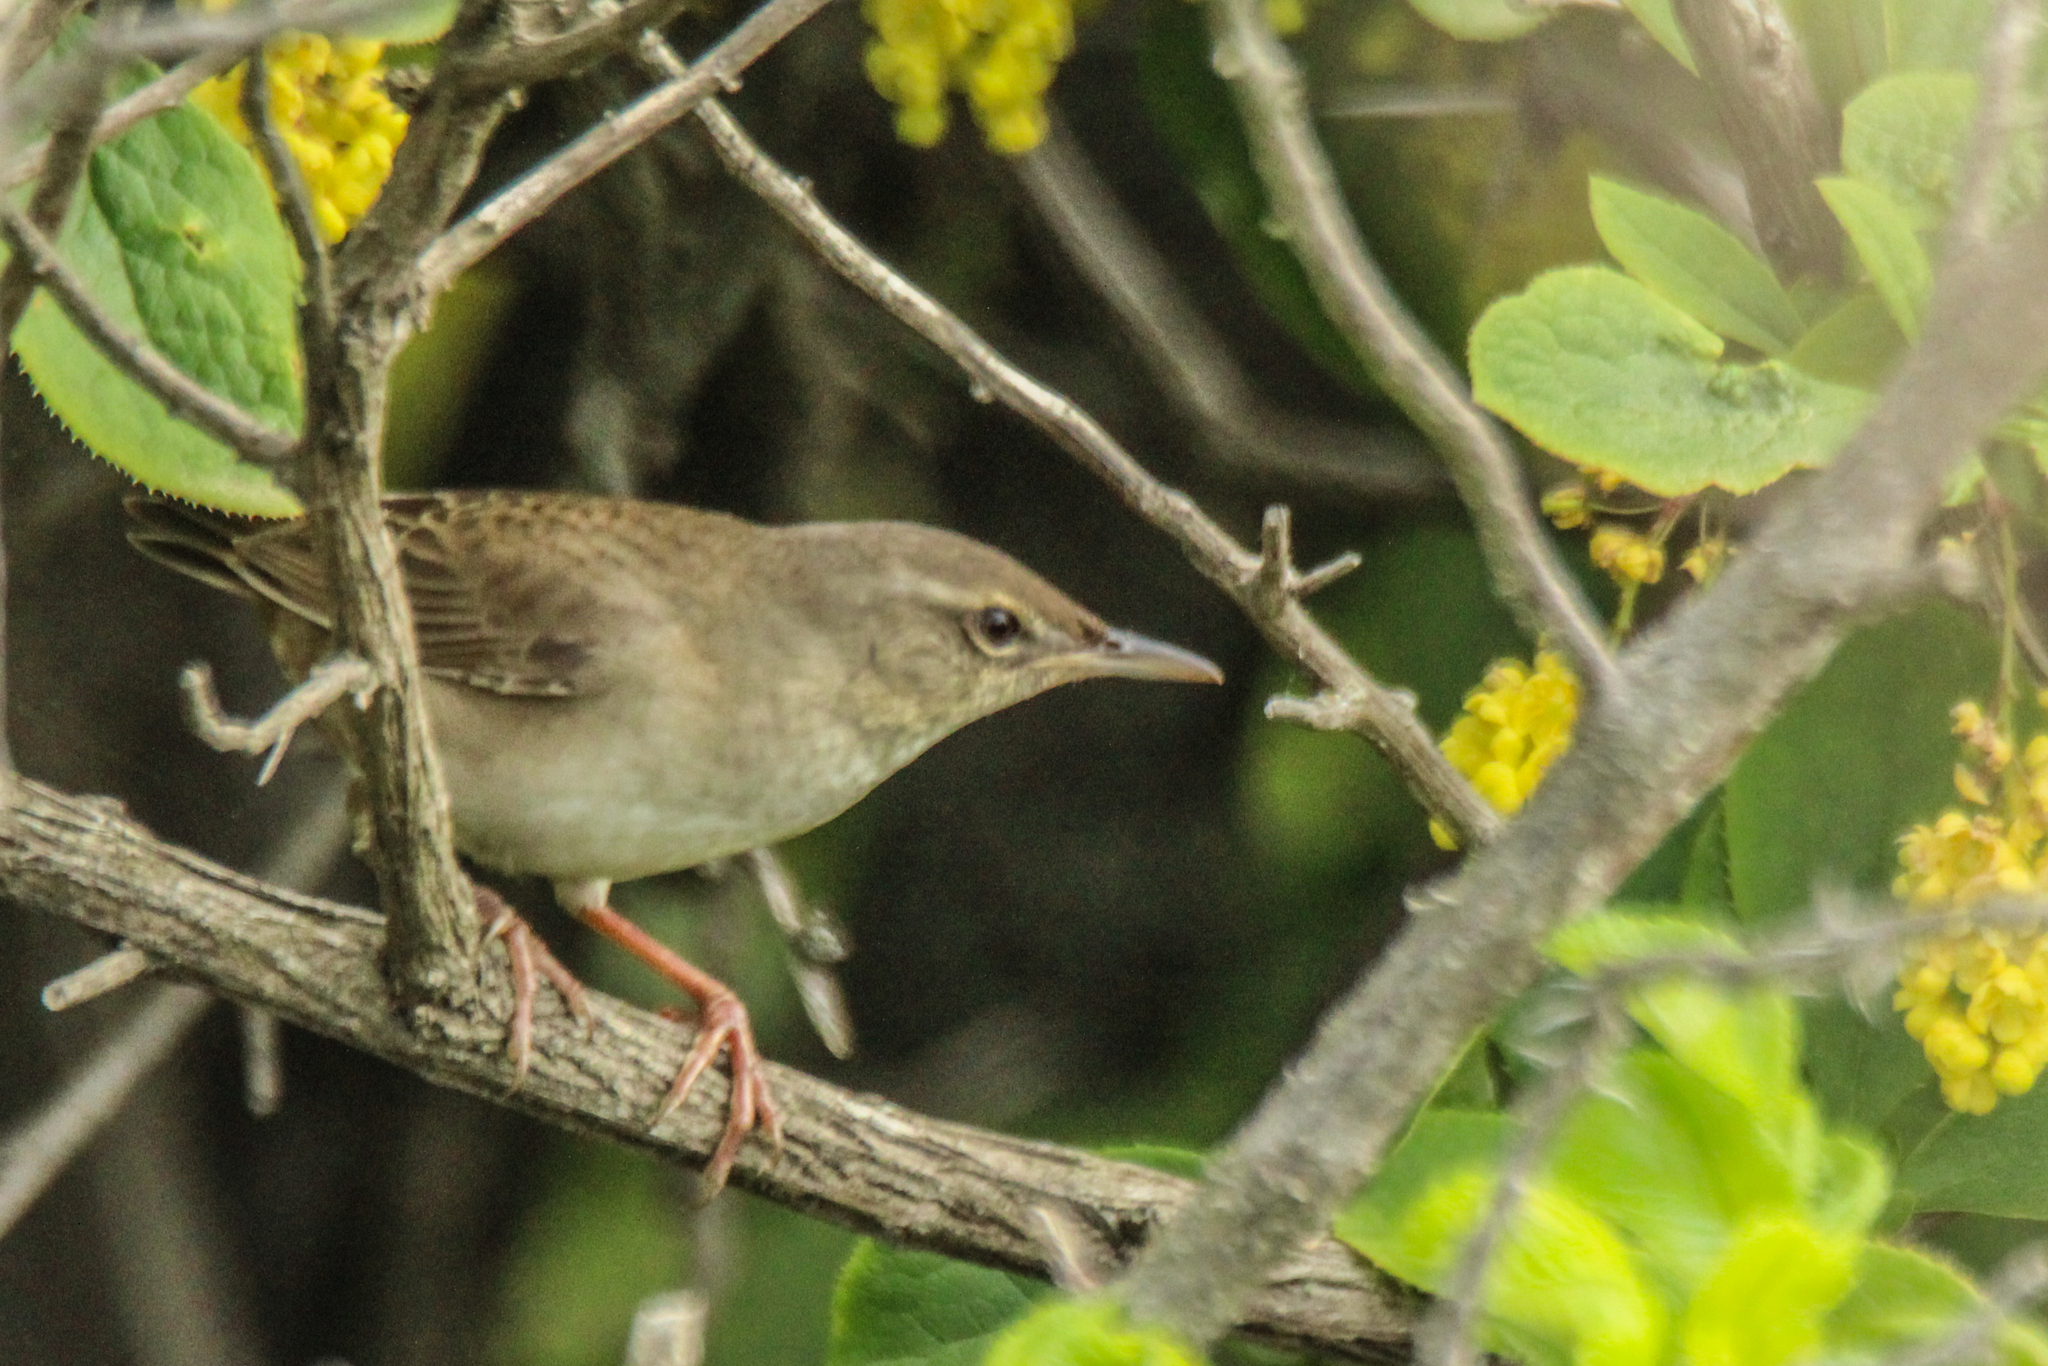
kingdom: Animalia
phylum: Chordata
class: Aves
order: Passeriformes
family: Locustellidae
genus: Locustella
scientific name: Locustella pleskei
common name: Styan's grasshopper warbler
